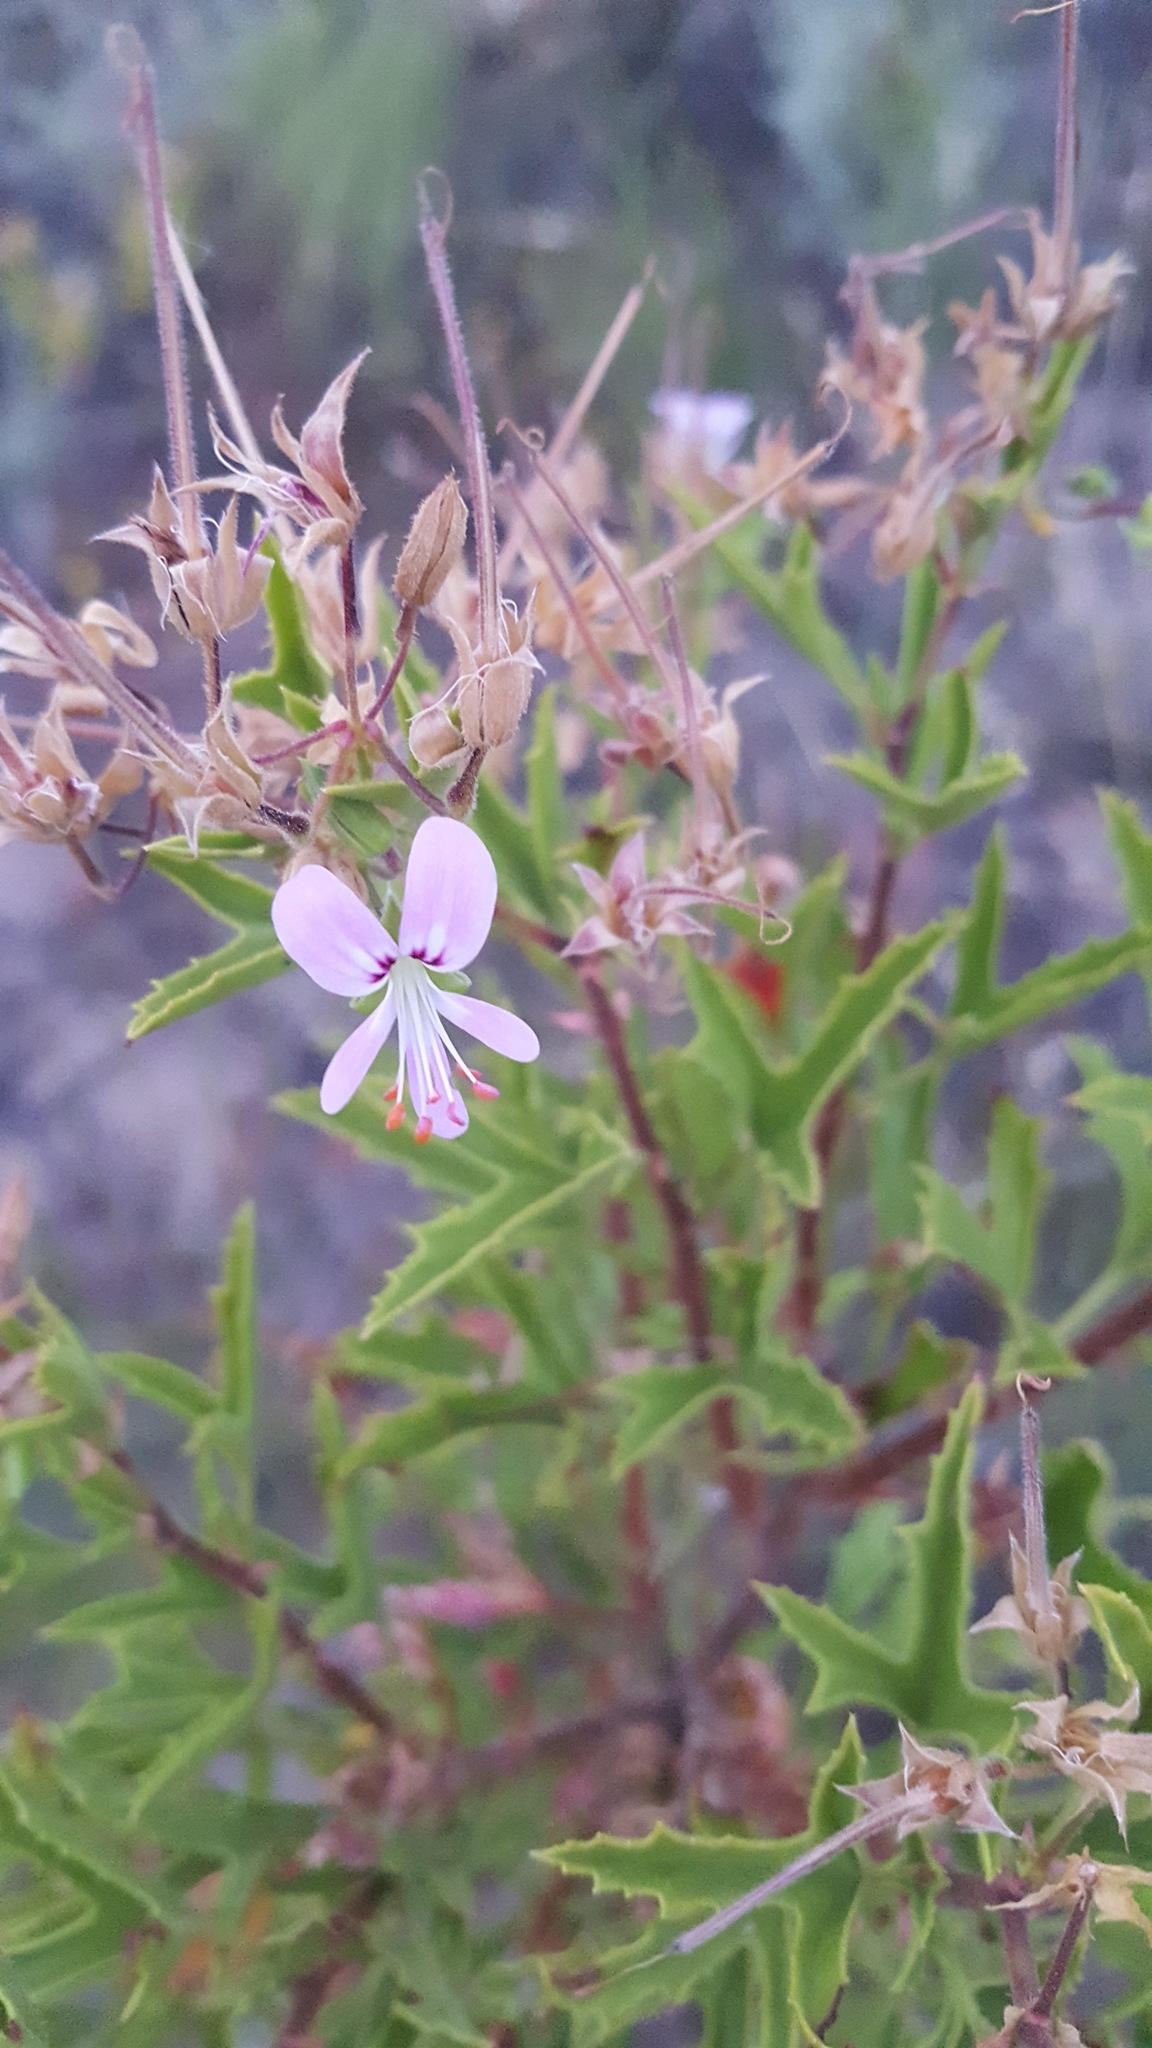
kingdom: Plantae
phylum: Tracheophyta
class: Magnoliopsida
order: Geraniales
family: Geraniaceae
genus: Pelargonium
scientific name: Pelargonium scabrum
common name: Apricot geranium
